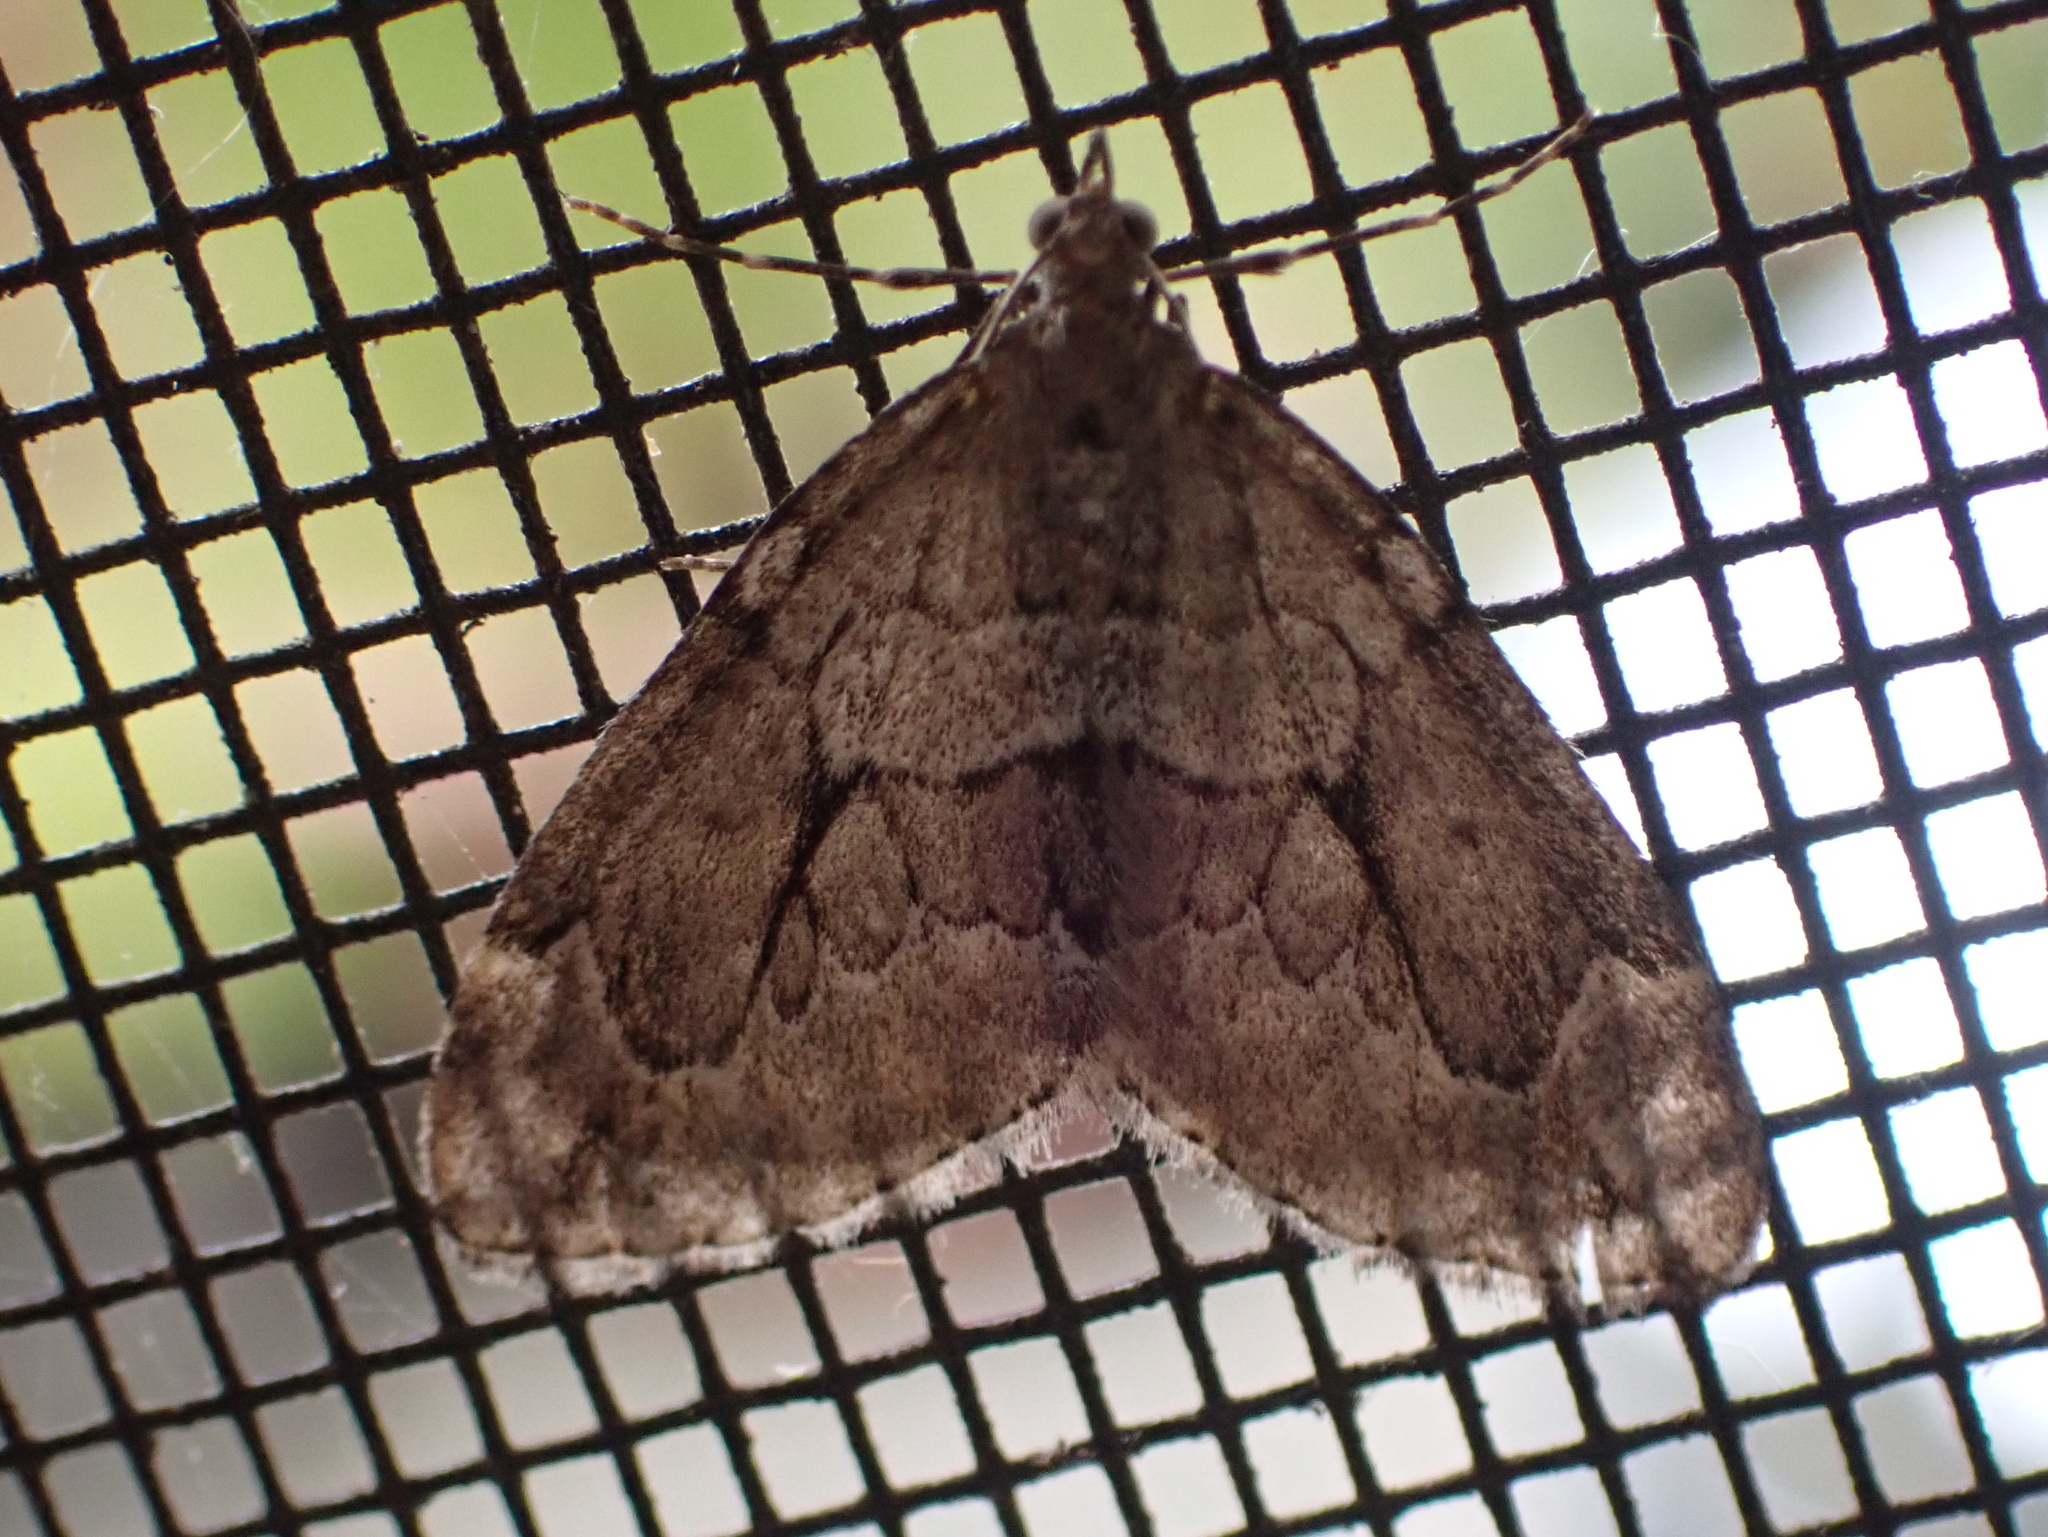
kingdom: Animalia
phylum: Arthropoda
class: Insecta
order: Lepidoptera
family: Geometridae
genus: Thera
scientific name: Thera juniperata
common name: Juniper carpet
